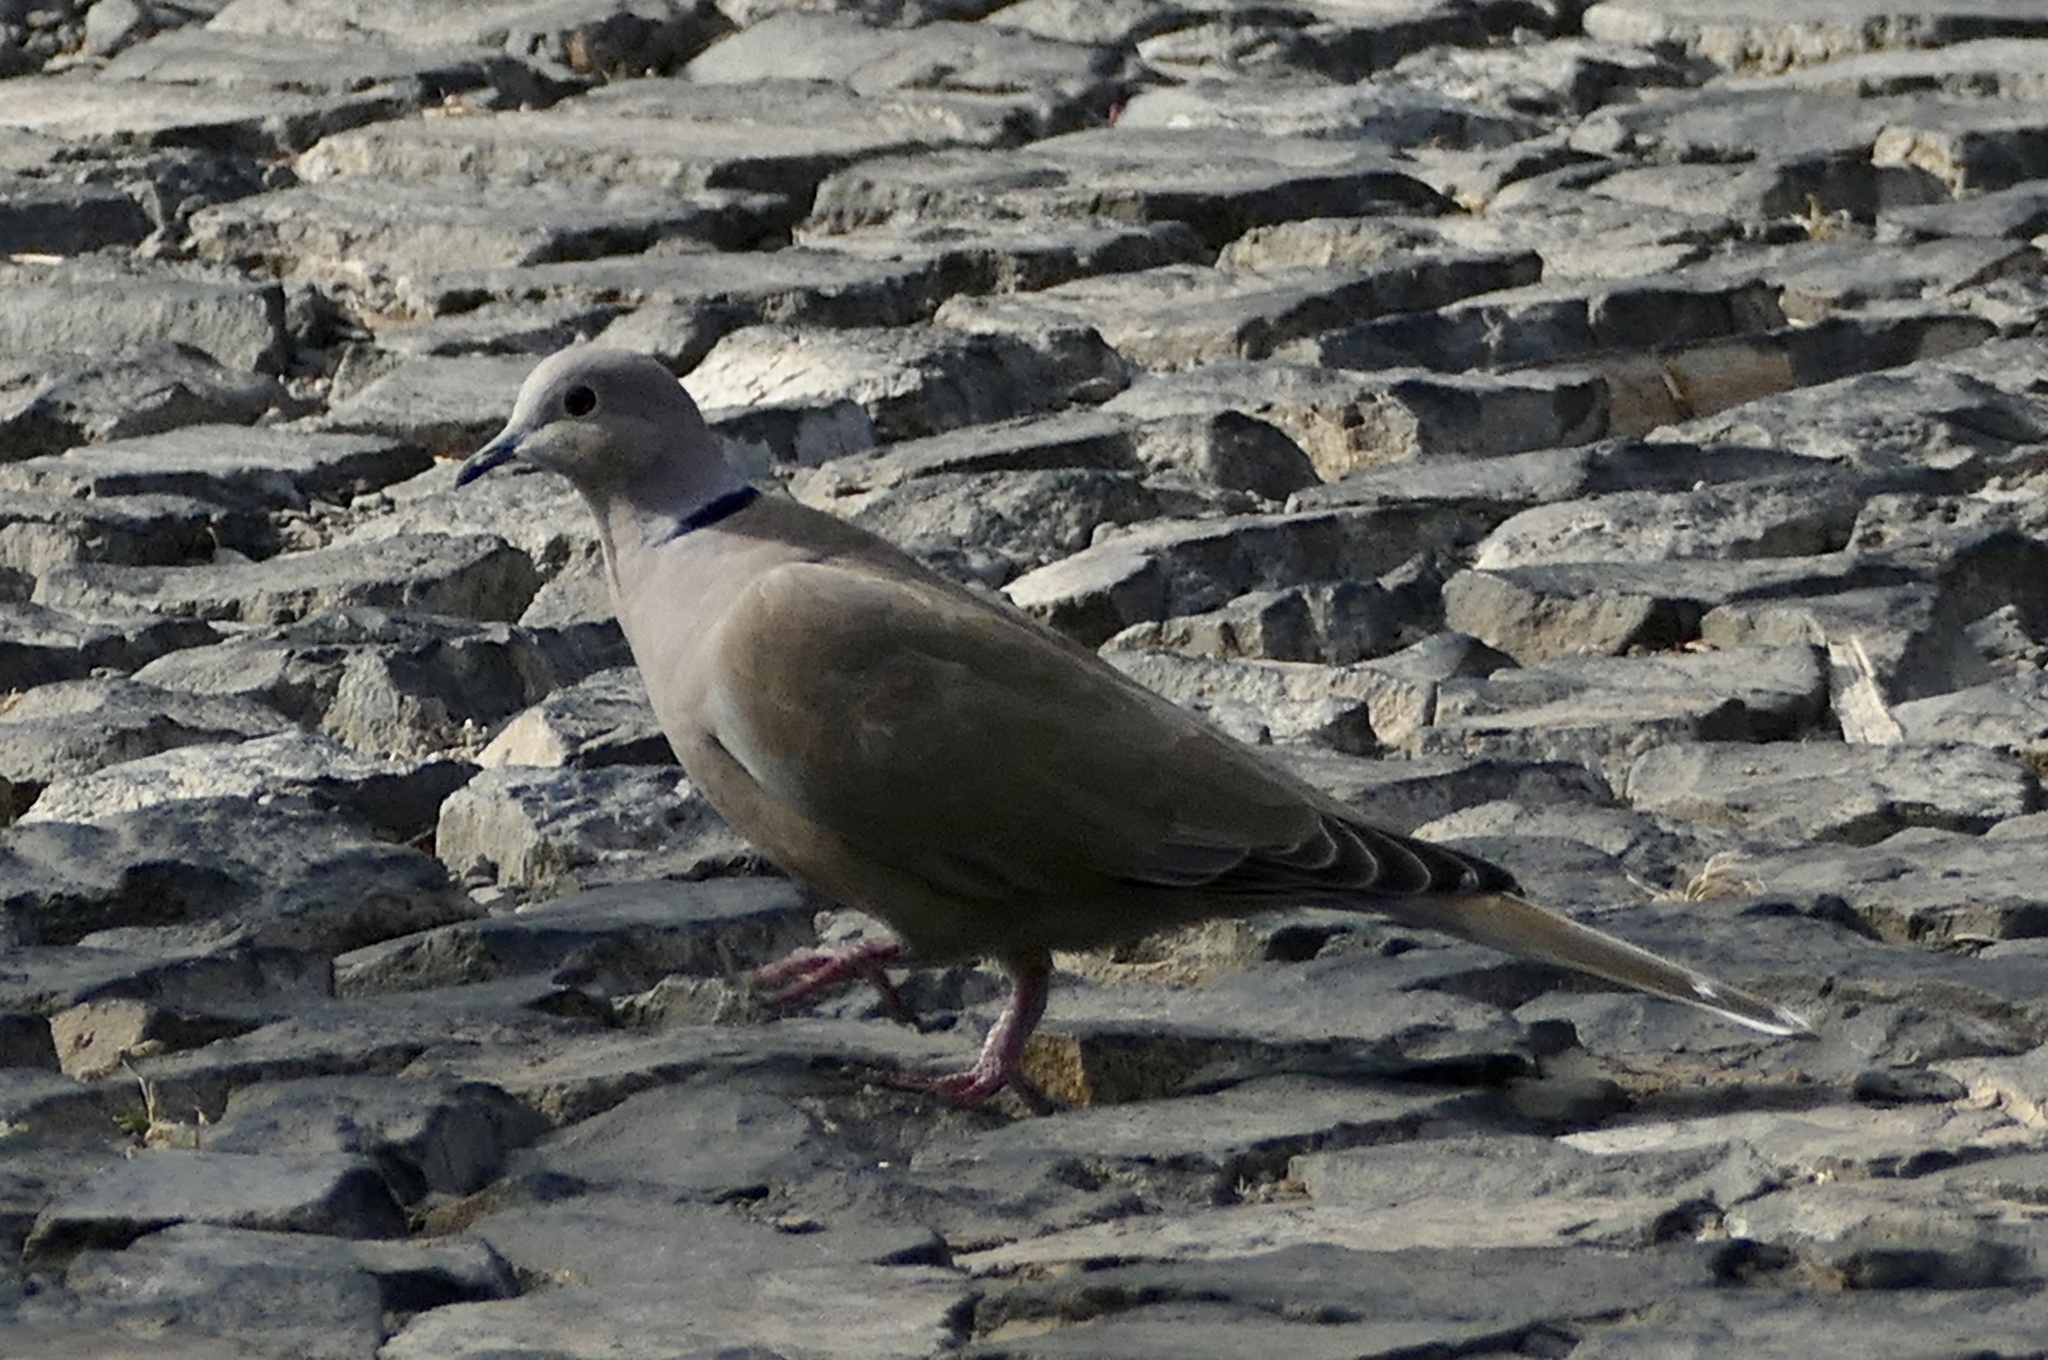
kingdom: Animalia
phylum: Chordata
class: Aves
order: Columbiformes
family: Columbidae
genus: Streptopelia
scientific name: Streptopelia decaocto
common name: Eurasian collared dove
